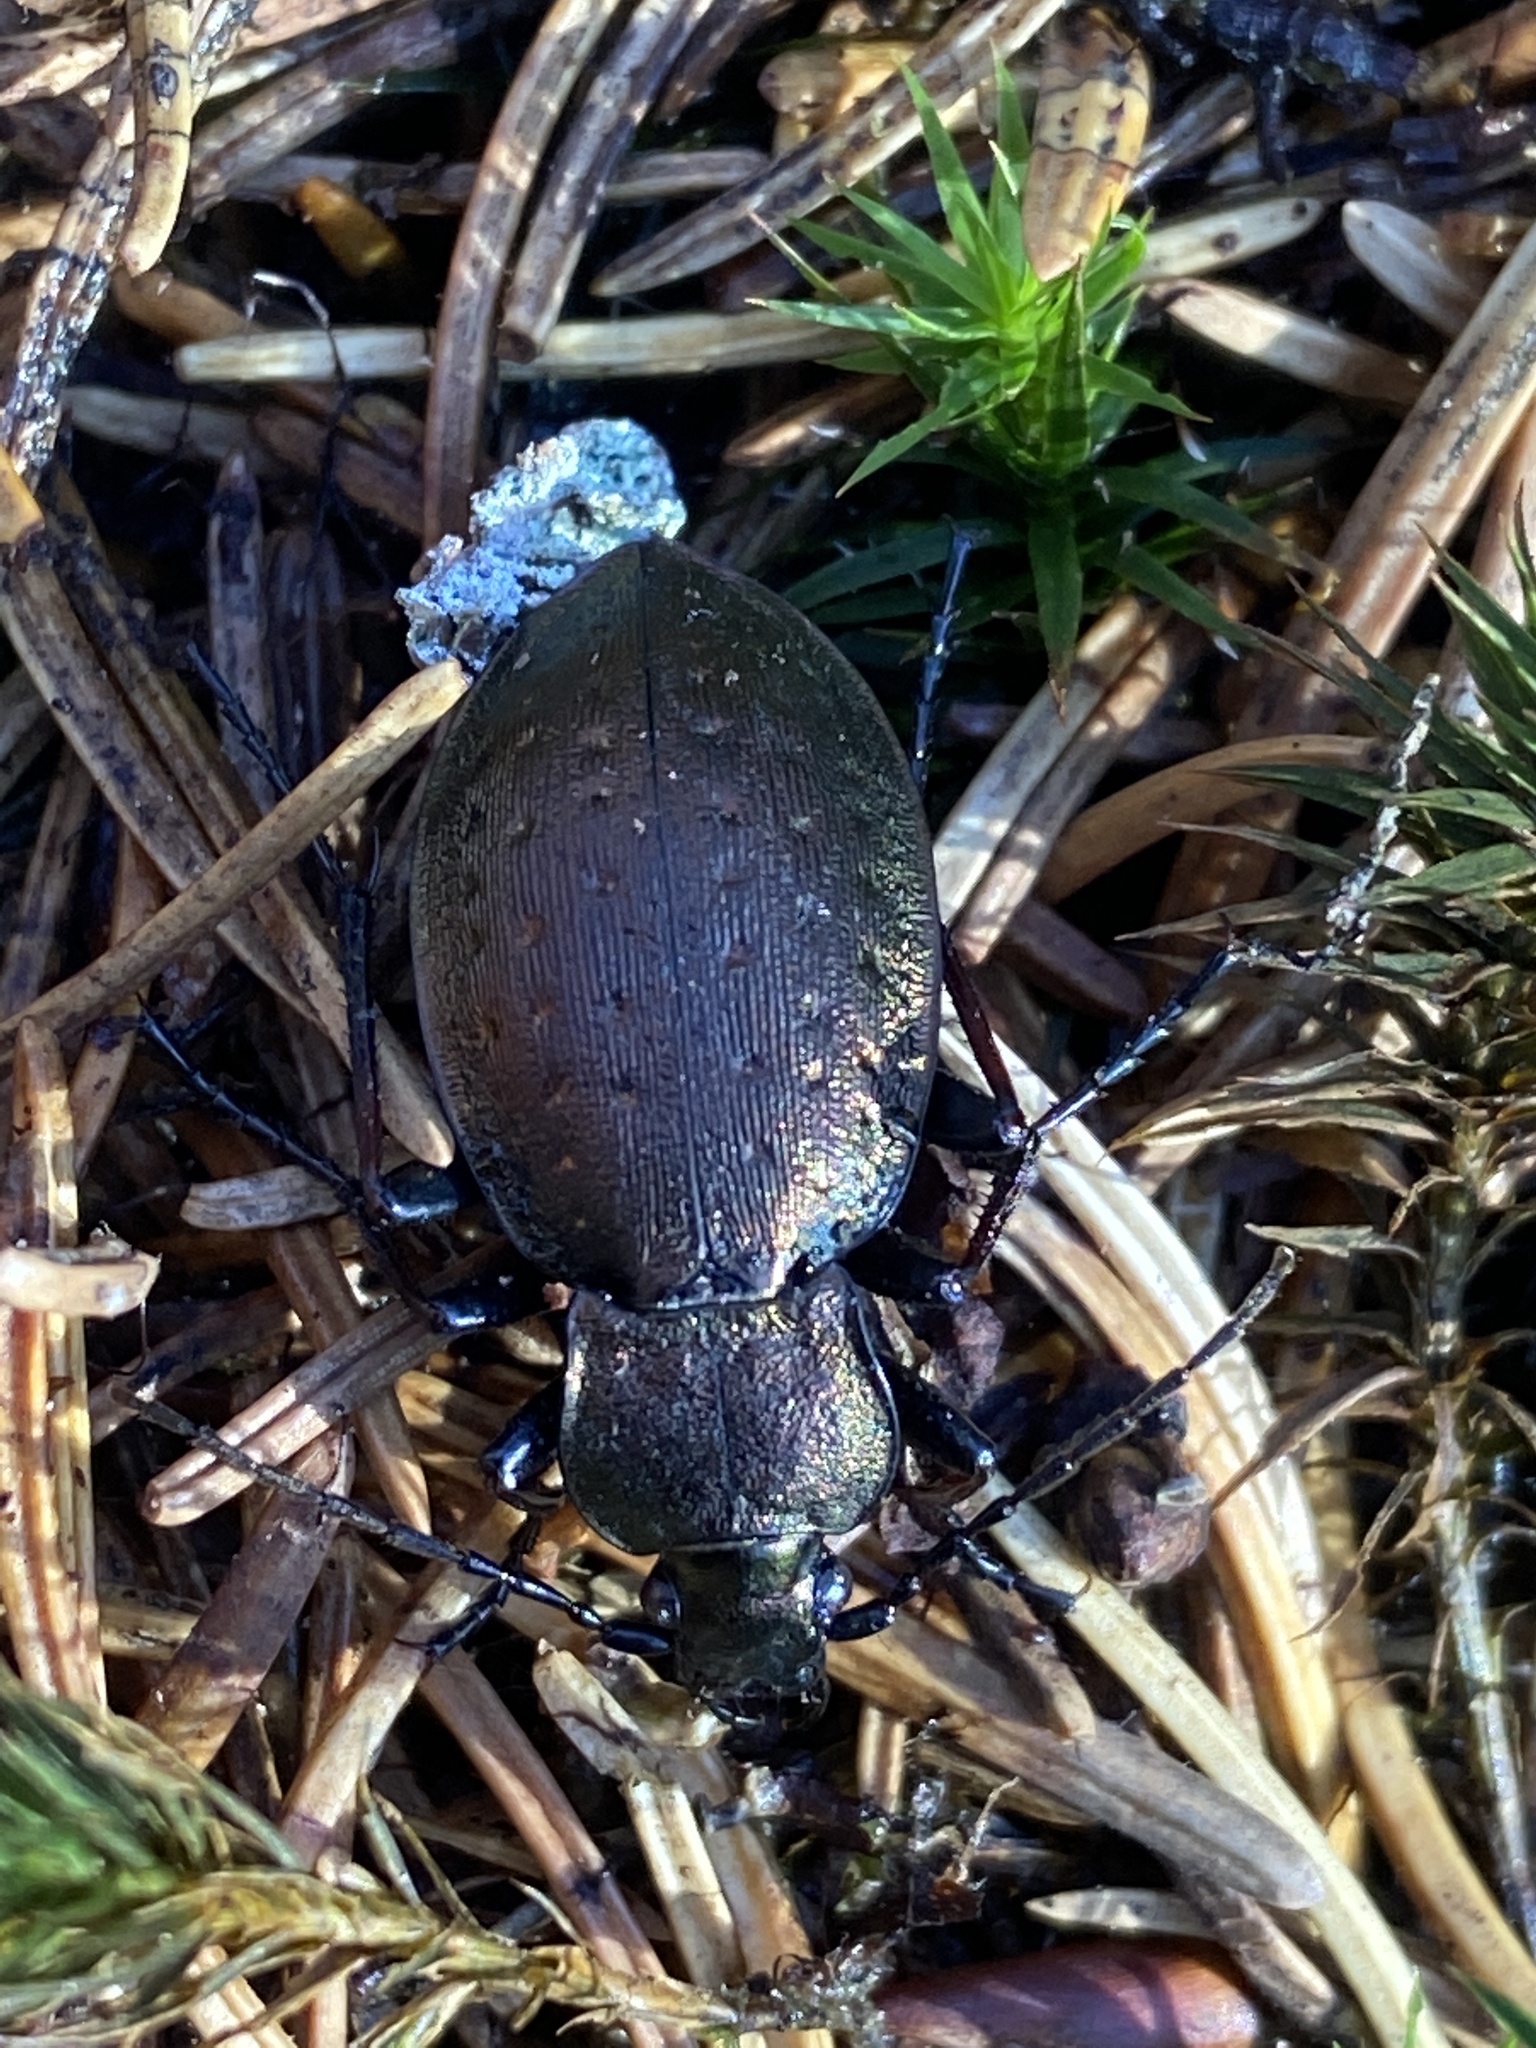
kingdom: Animalia
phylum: Arthropoda
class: Insecta
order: Coleoptera
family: Carabidae
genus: Carabus
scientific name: Carabus sylvestris
